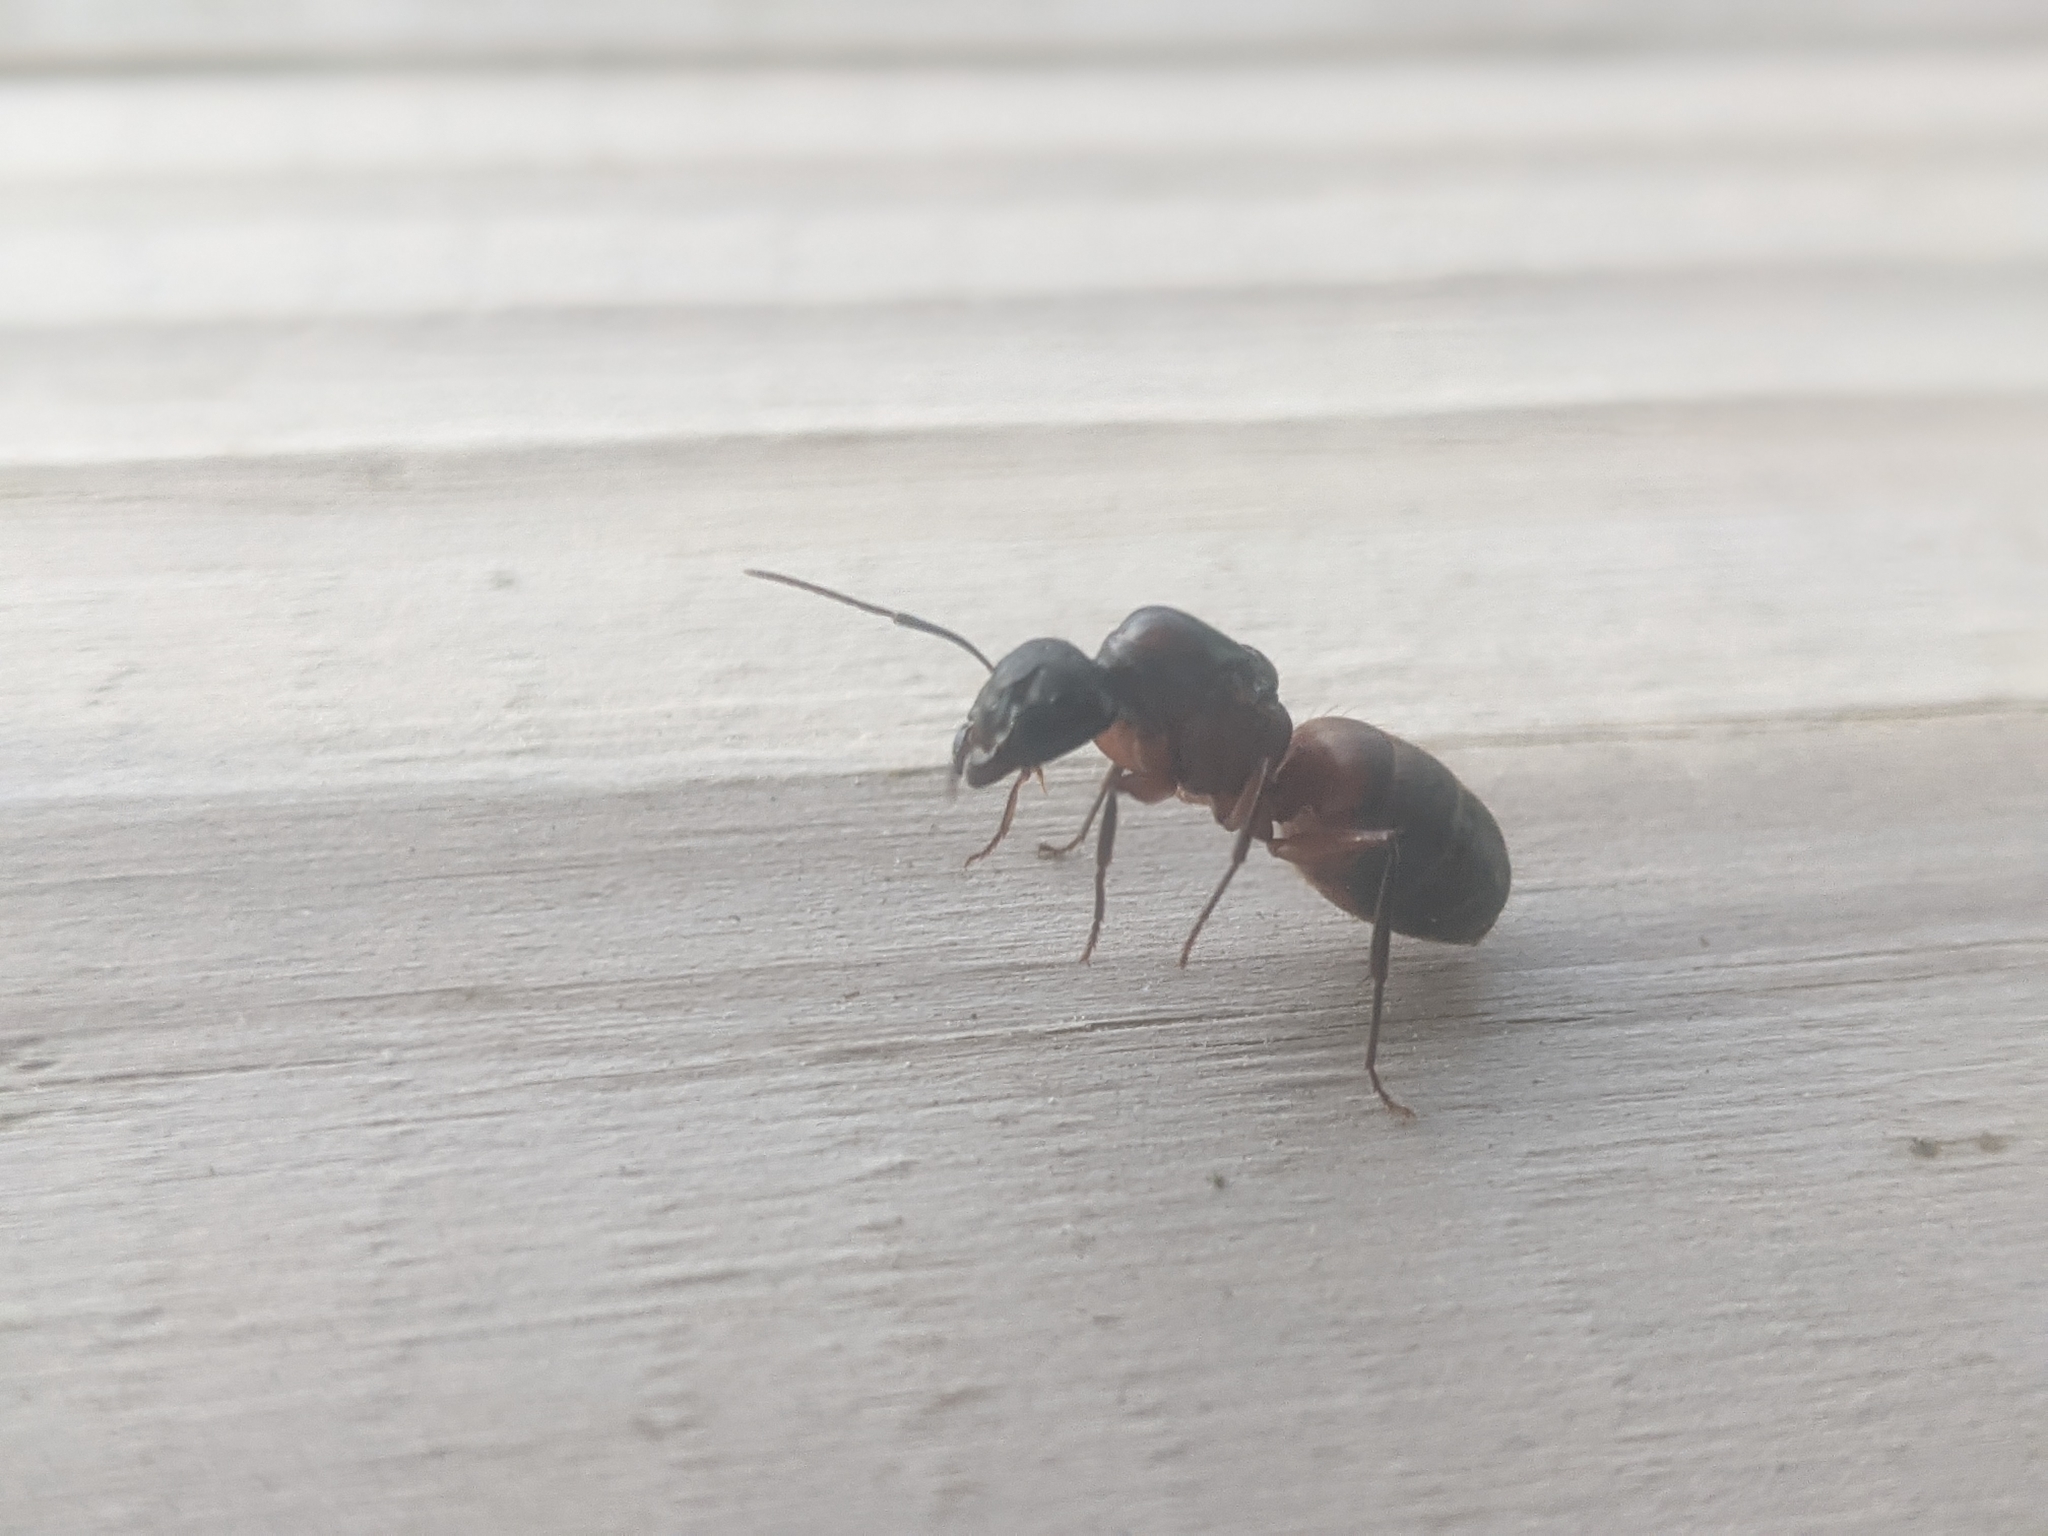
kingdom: Animalia
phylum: Arthropoda
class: Insecta
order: Hymenoptera
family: Formicidae
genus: Camponotus
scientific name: Camponotus chromaiodes
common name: Red carpenter ant
